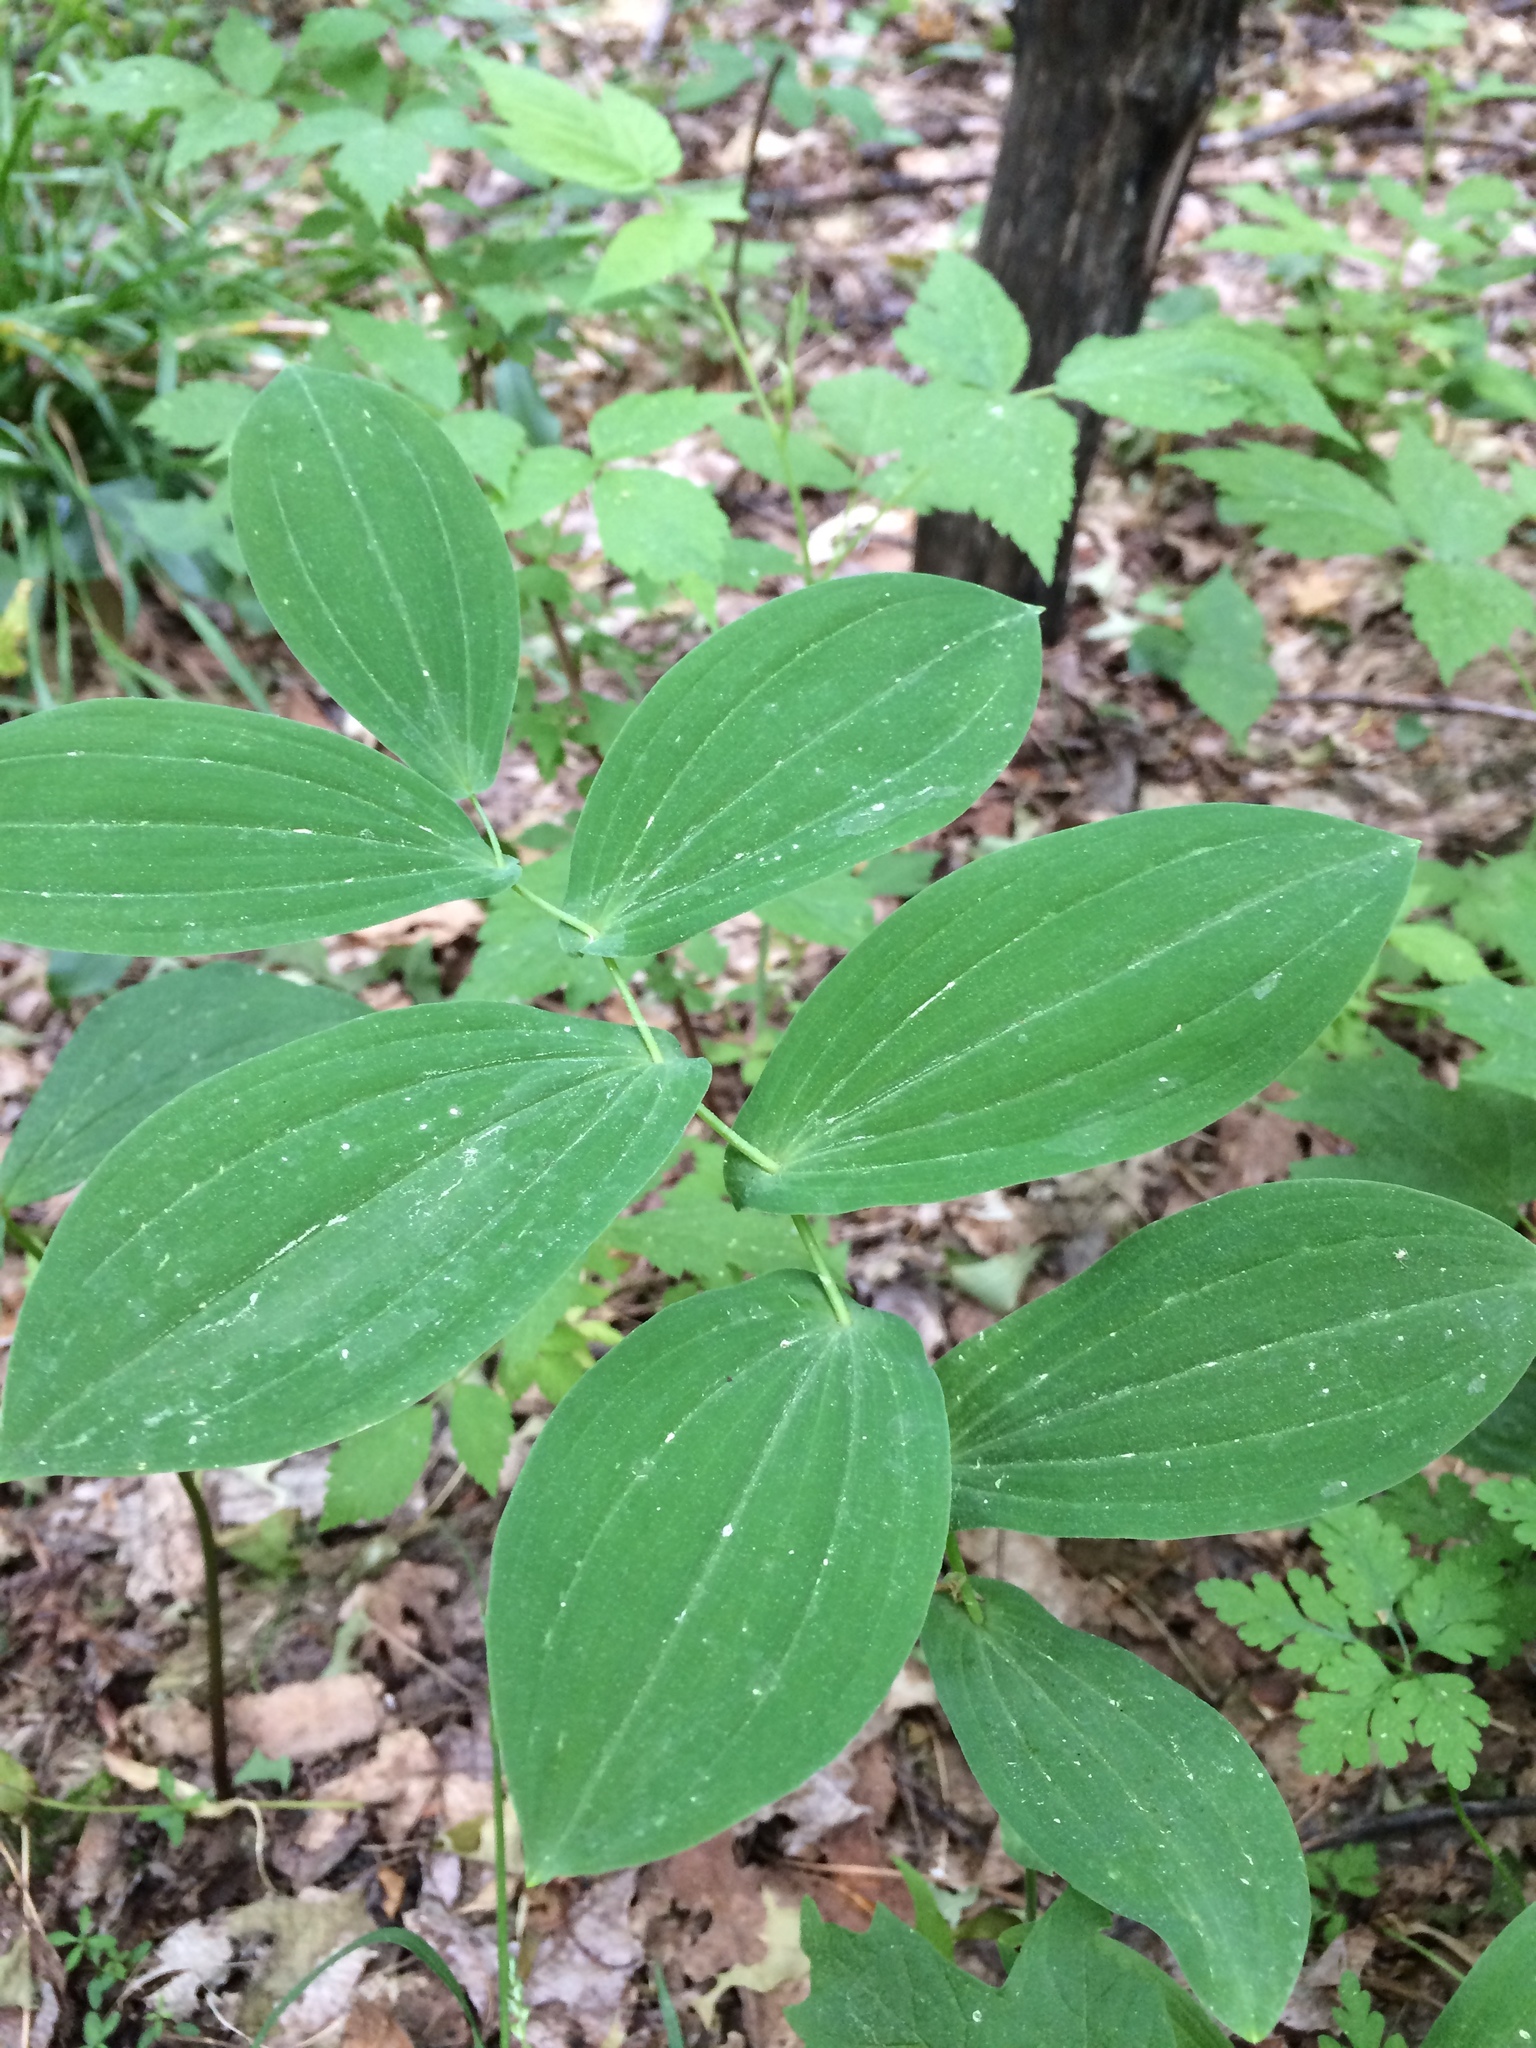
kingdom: Plantae
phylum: Tracheophyta
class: Liliopsida
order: Liliales
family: Colchicaceae
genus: Uvularia
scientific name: Uvularia grandiflora
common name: Bellwort
